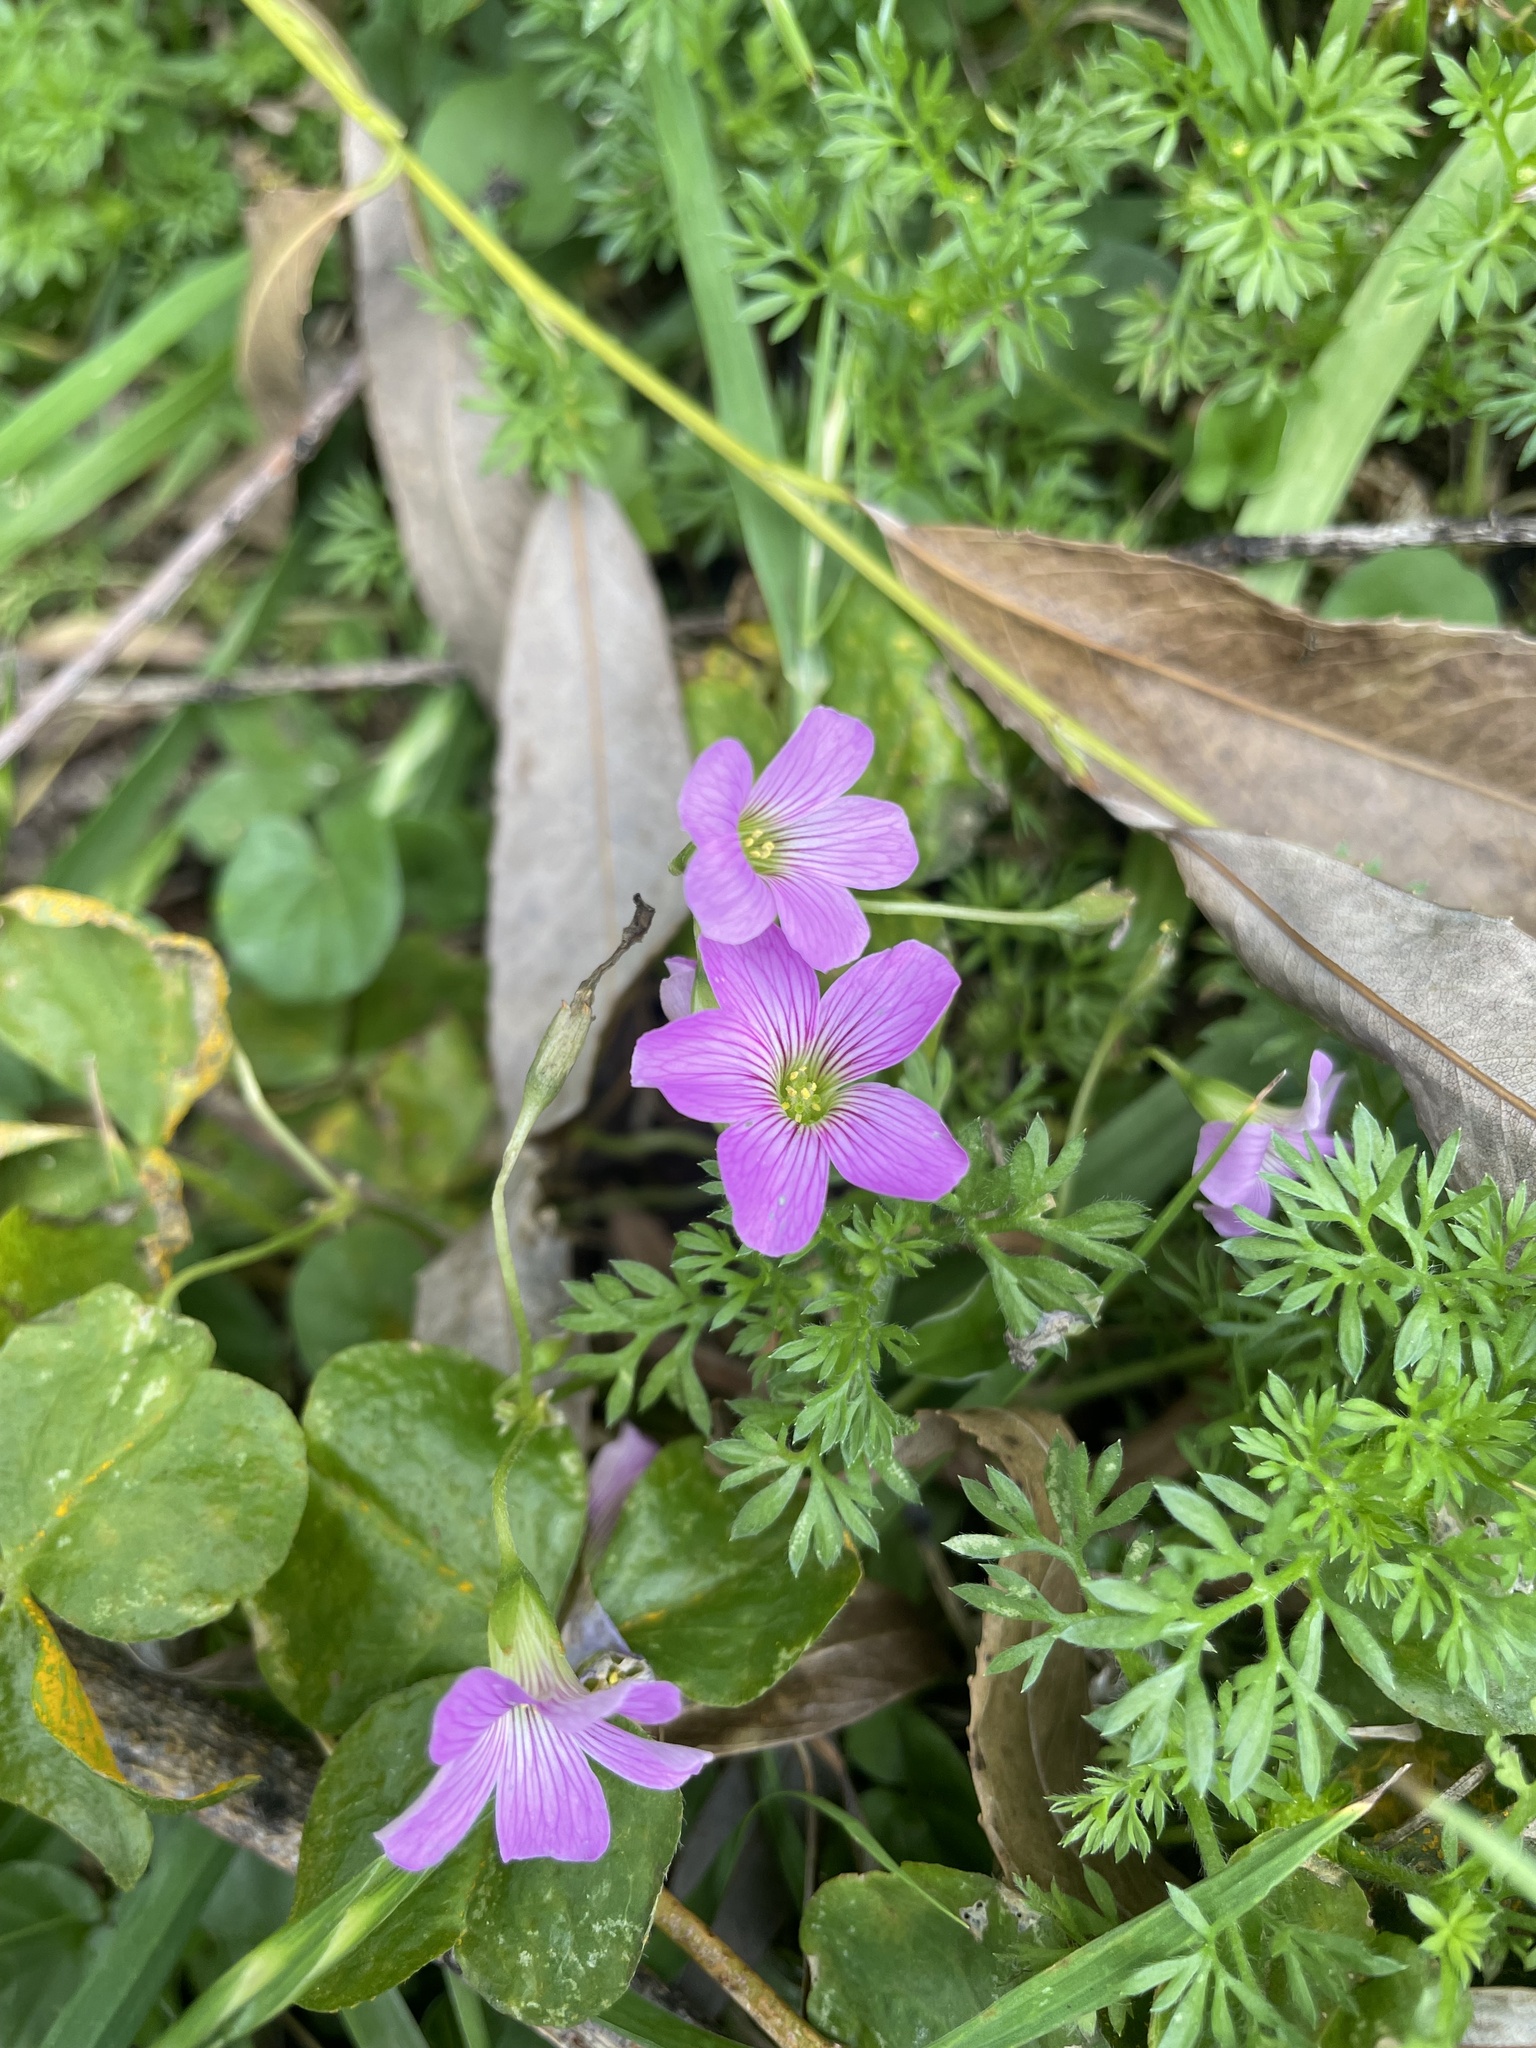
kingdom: Plantae
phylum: Tracheophyta
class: Magnoliopsida
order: Oxalidales
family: Oxalidaceae
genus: Oxalis
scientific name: Oxalis debilis
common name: Large-flowered pink-sorrel
